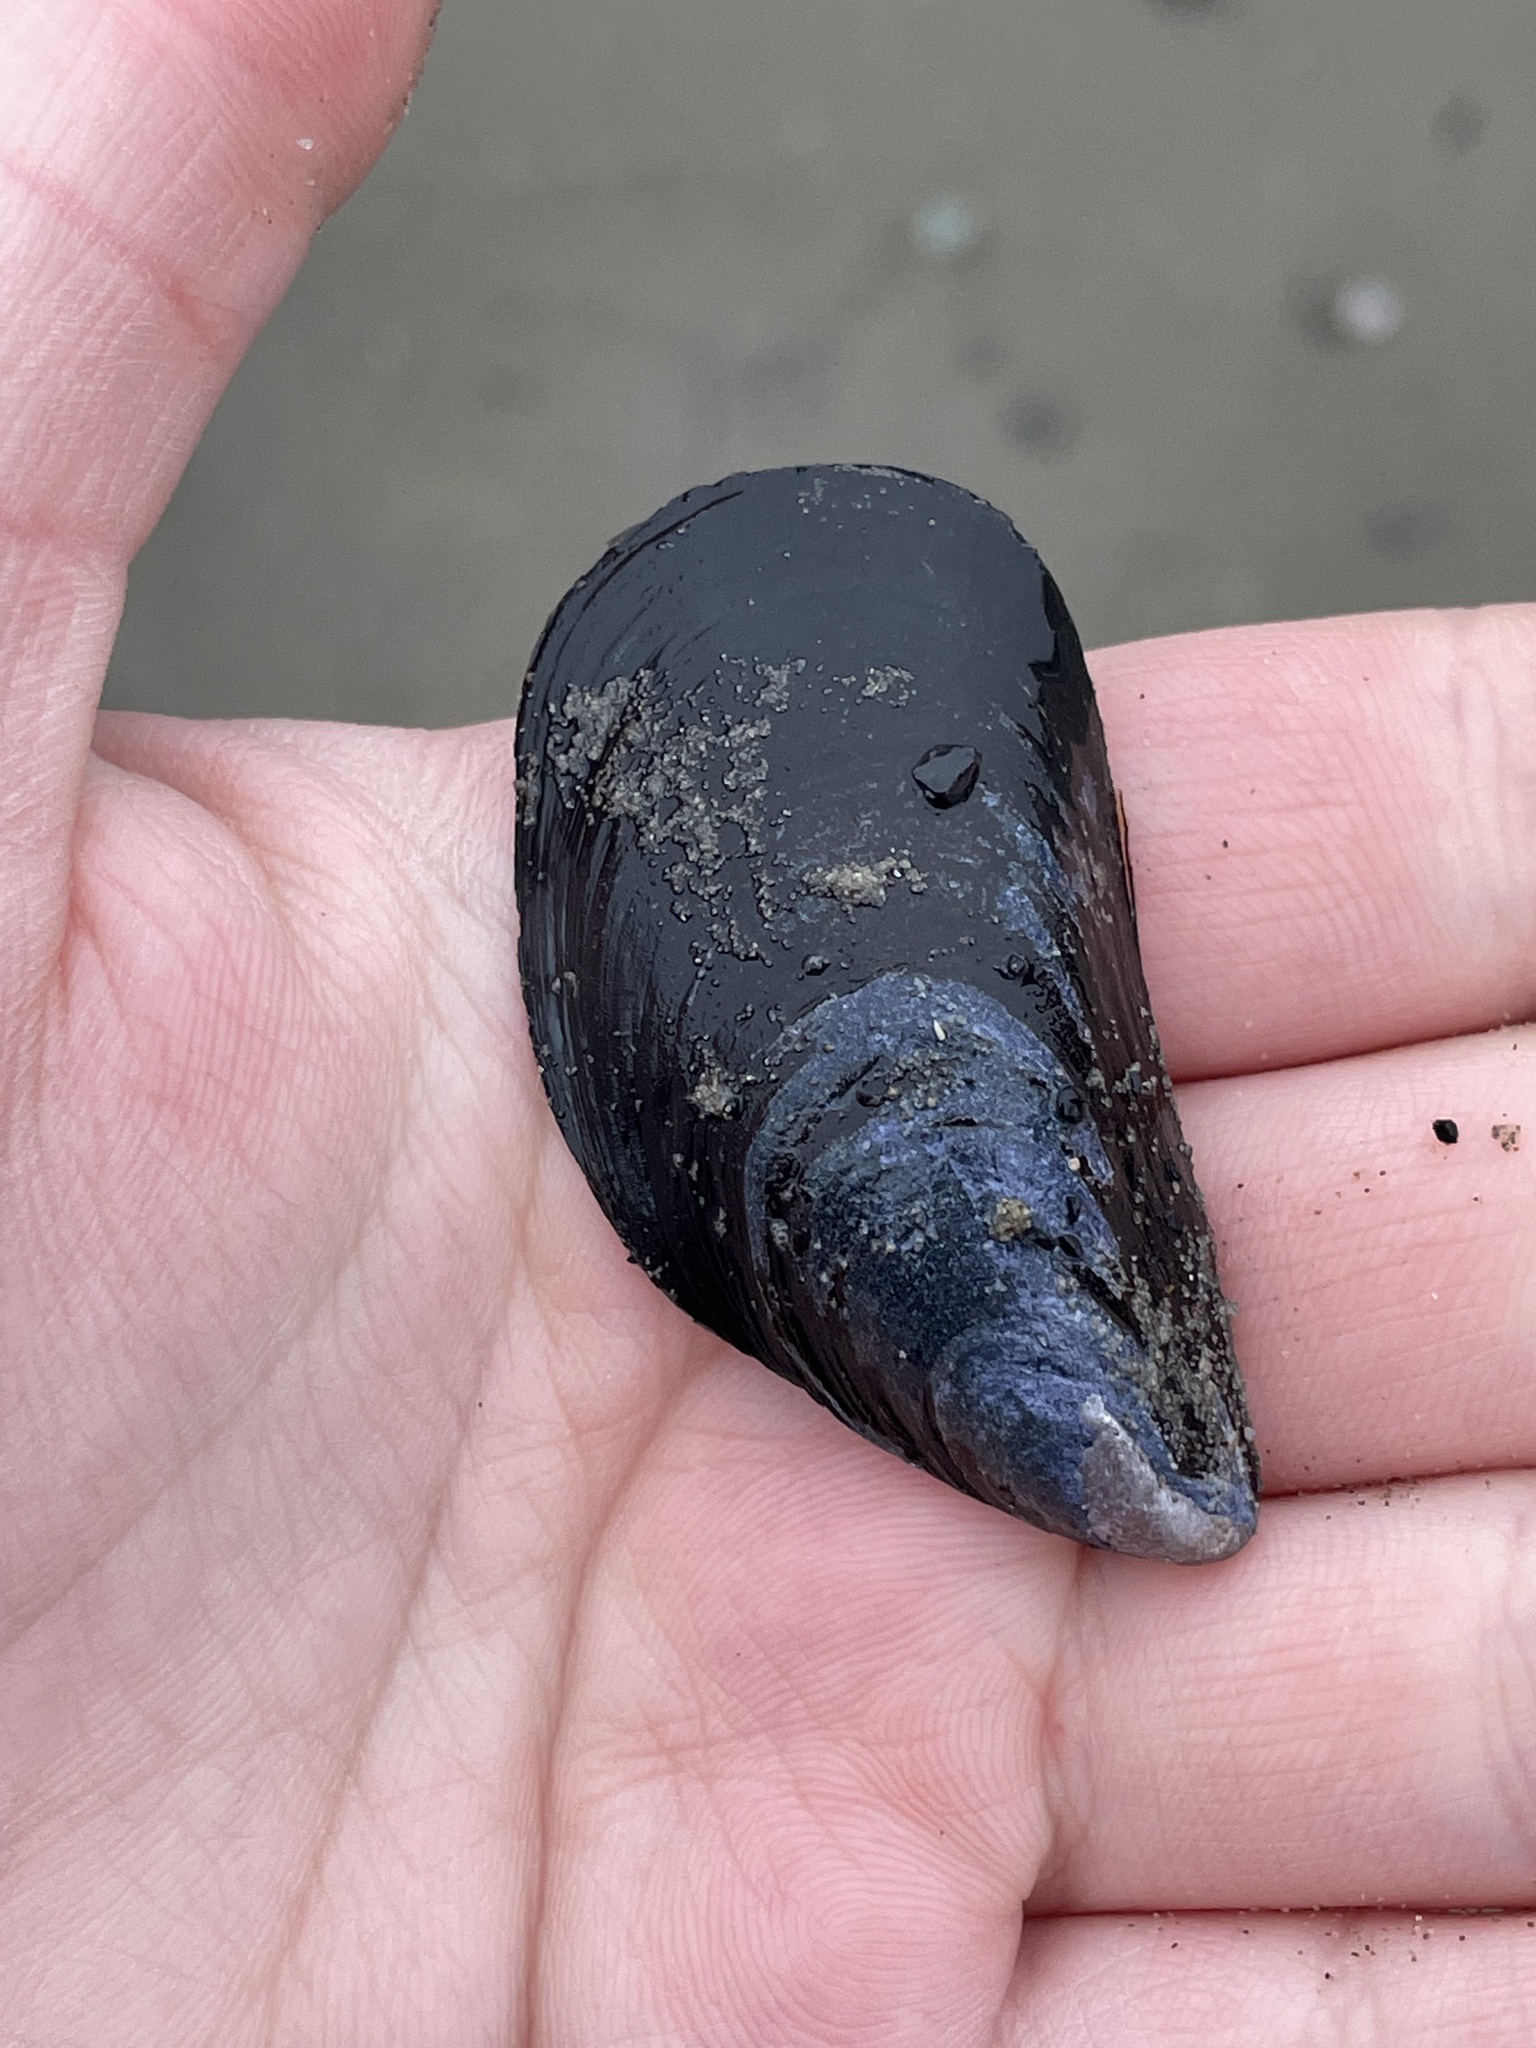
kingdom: Animalia
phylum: Mollusca
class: Bivalvia
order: Mytilida
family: Mytilidae
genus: Mytilus
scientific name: Mytilus
